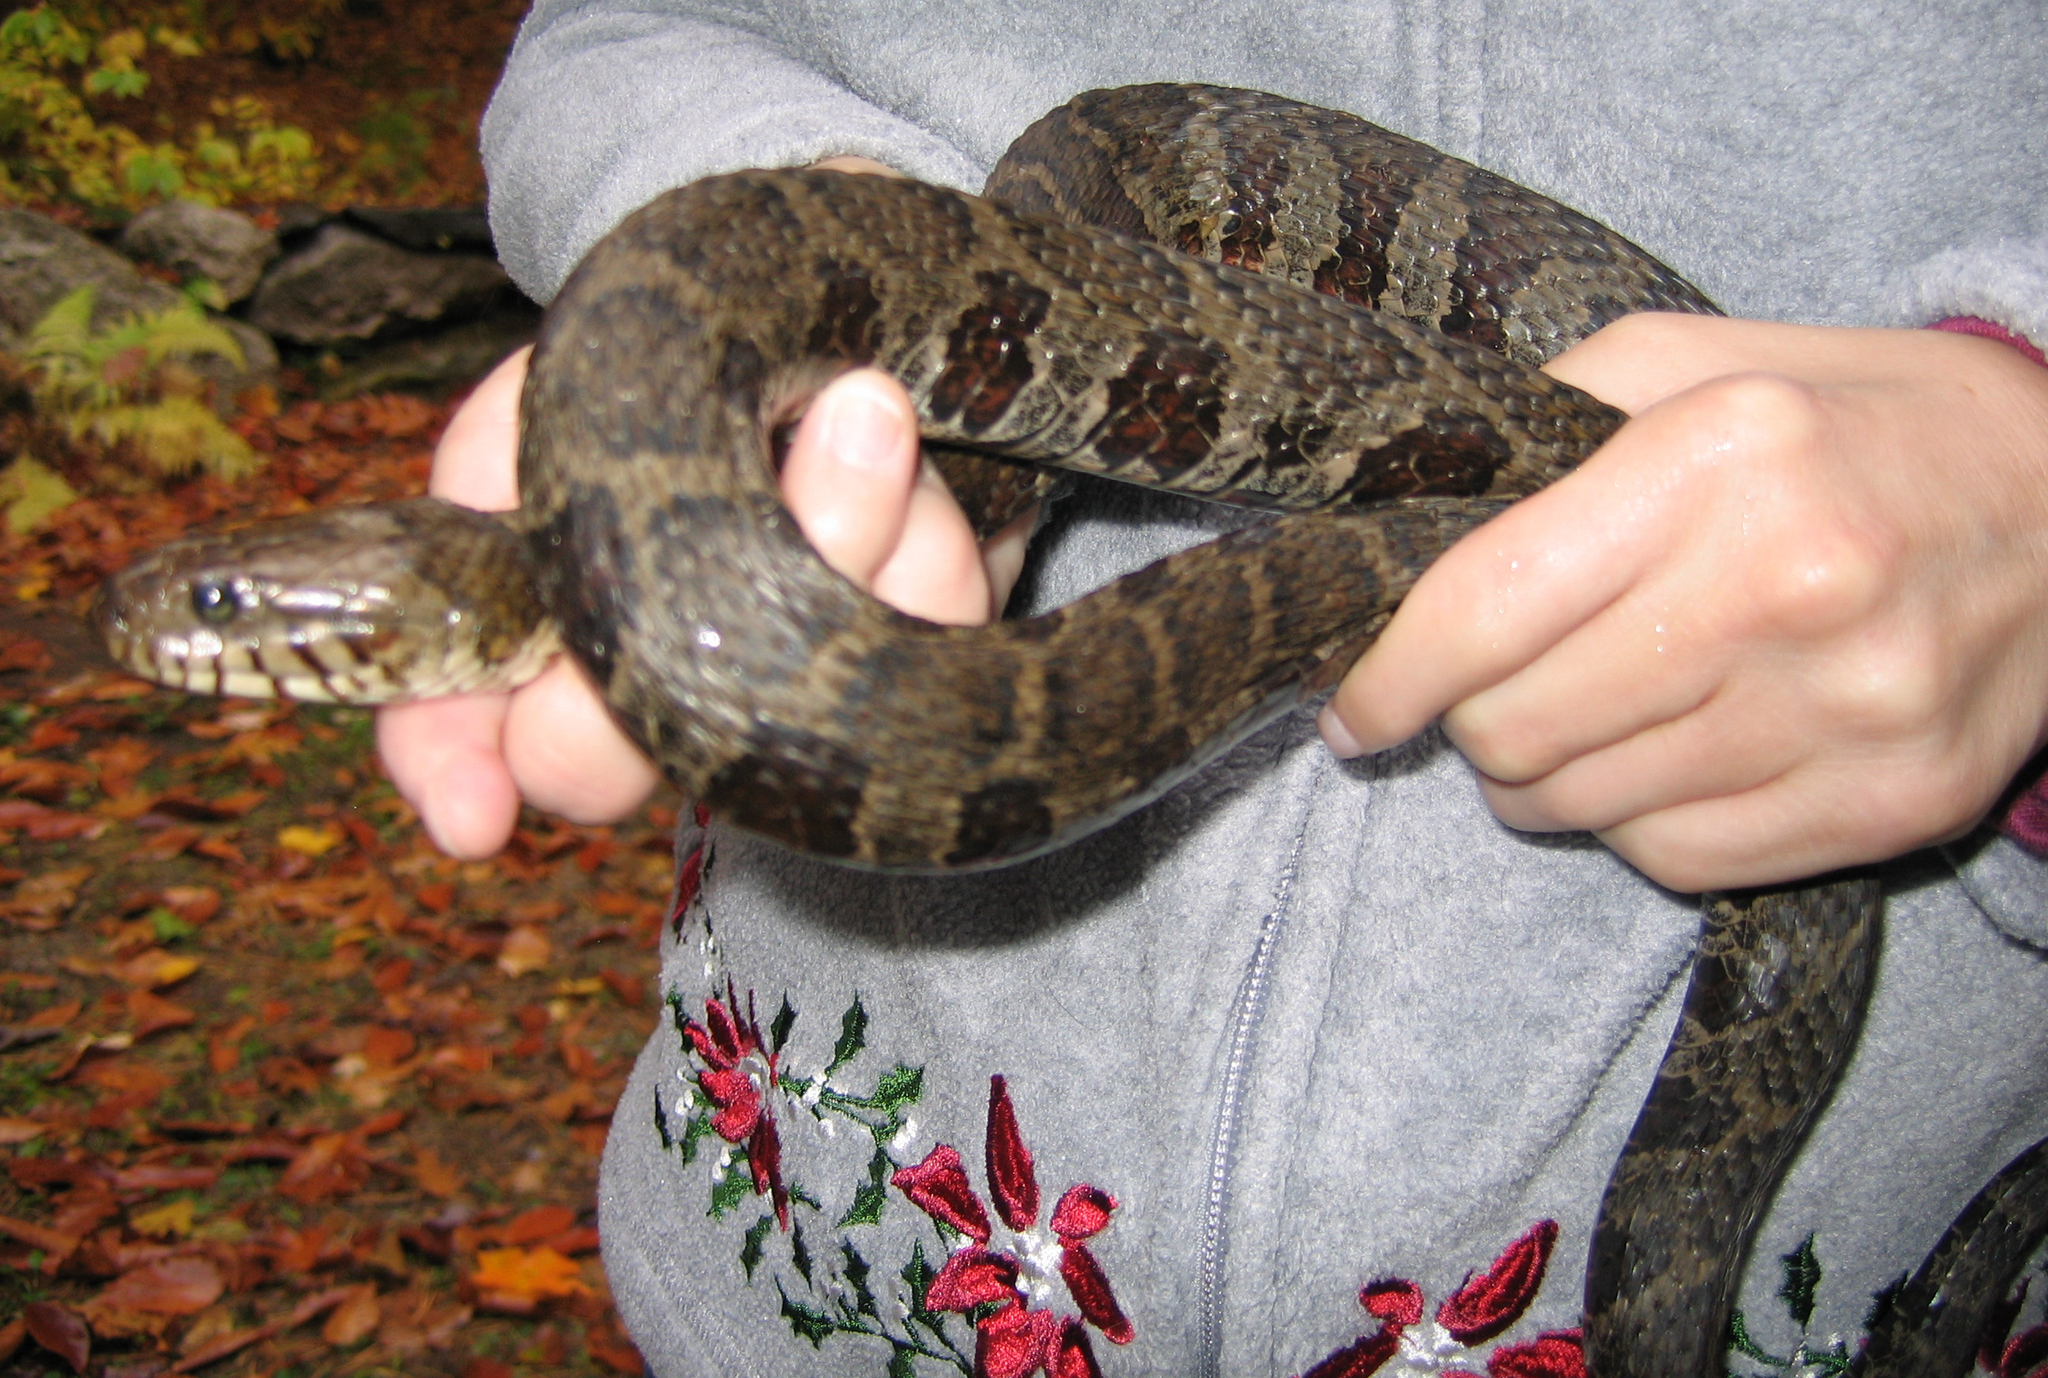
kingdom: Animalia
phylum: Chordata
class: Squamata
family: Colubridae
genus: Nerodia
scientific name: Nerodia sipedon
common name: Northern water snake
